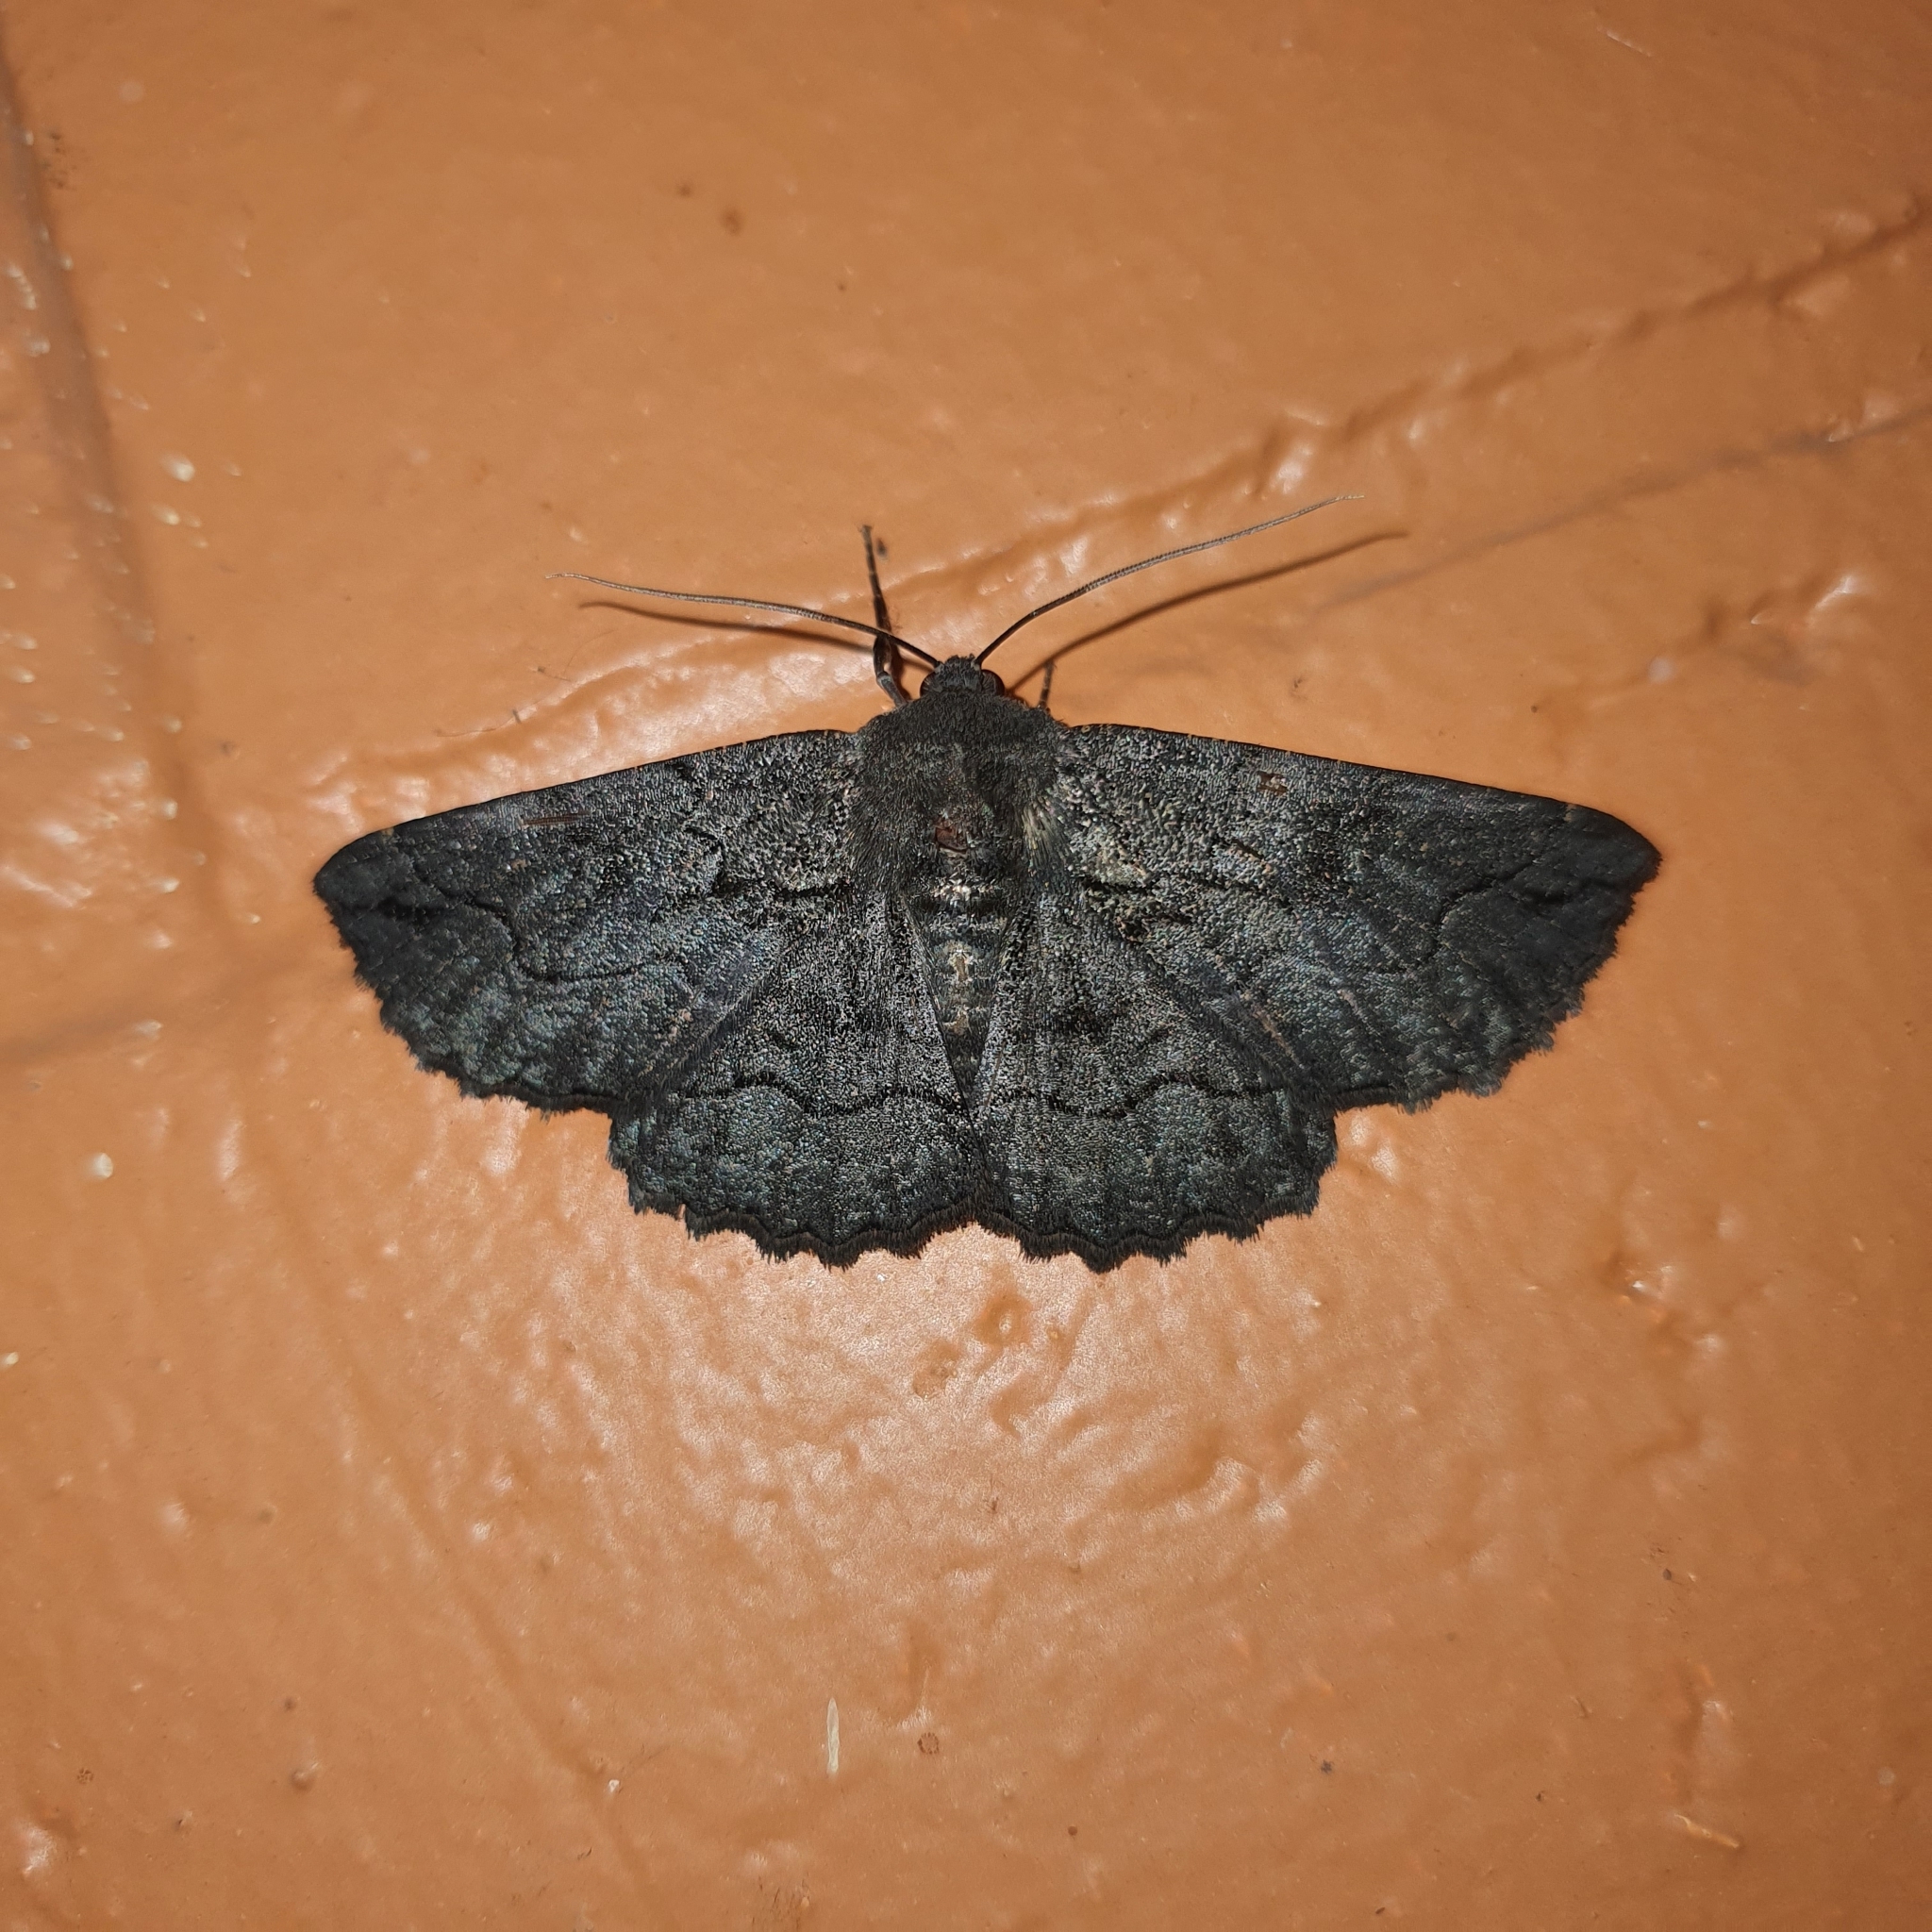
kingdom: Animalia
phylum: Arthropoda
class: Insecta
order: Lepidoptera
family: Geometridae
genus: Melanodes
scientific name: Melanodes anthracitaria
